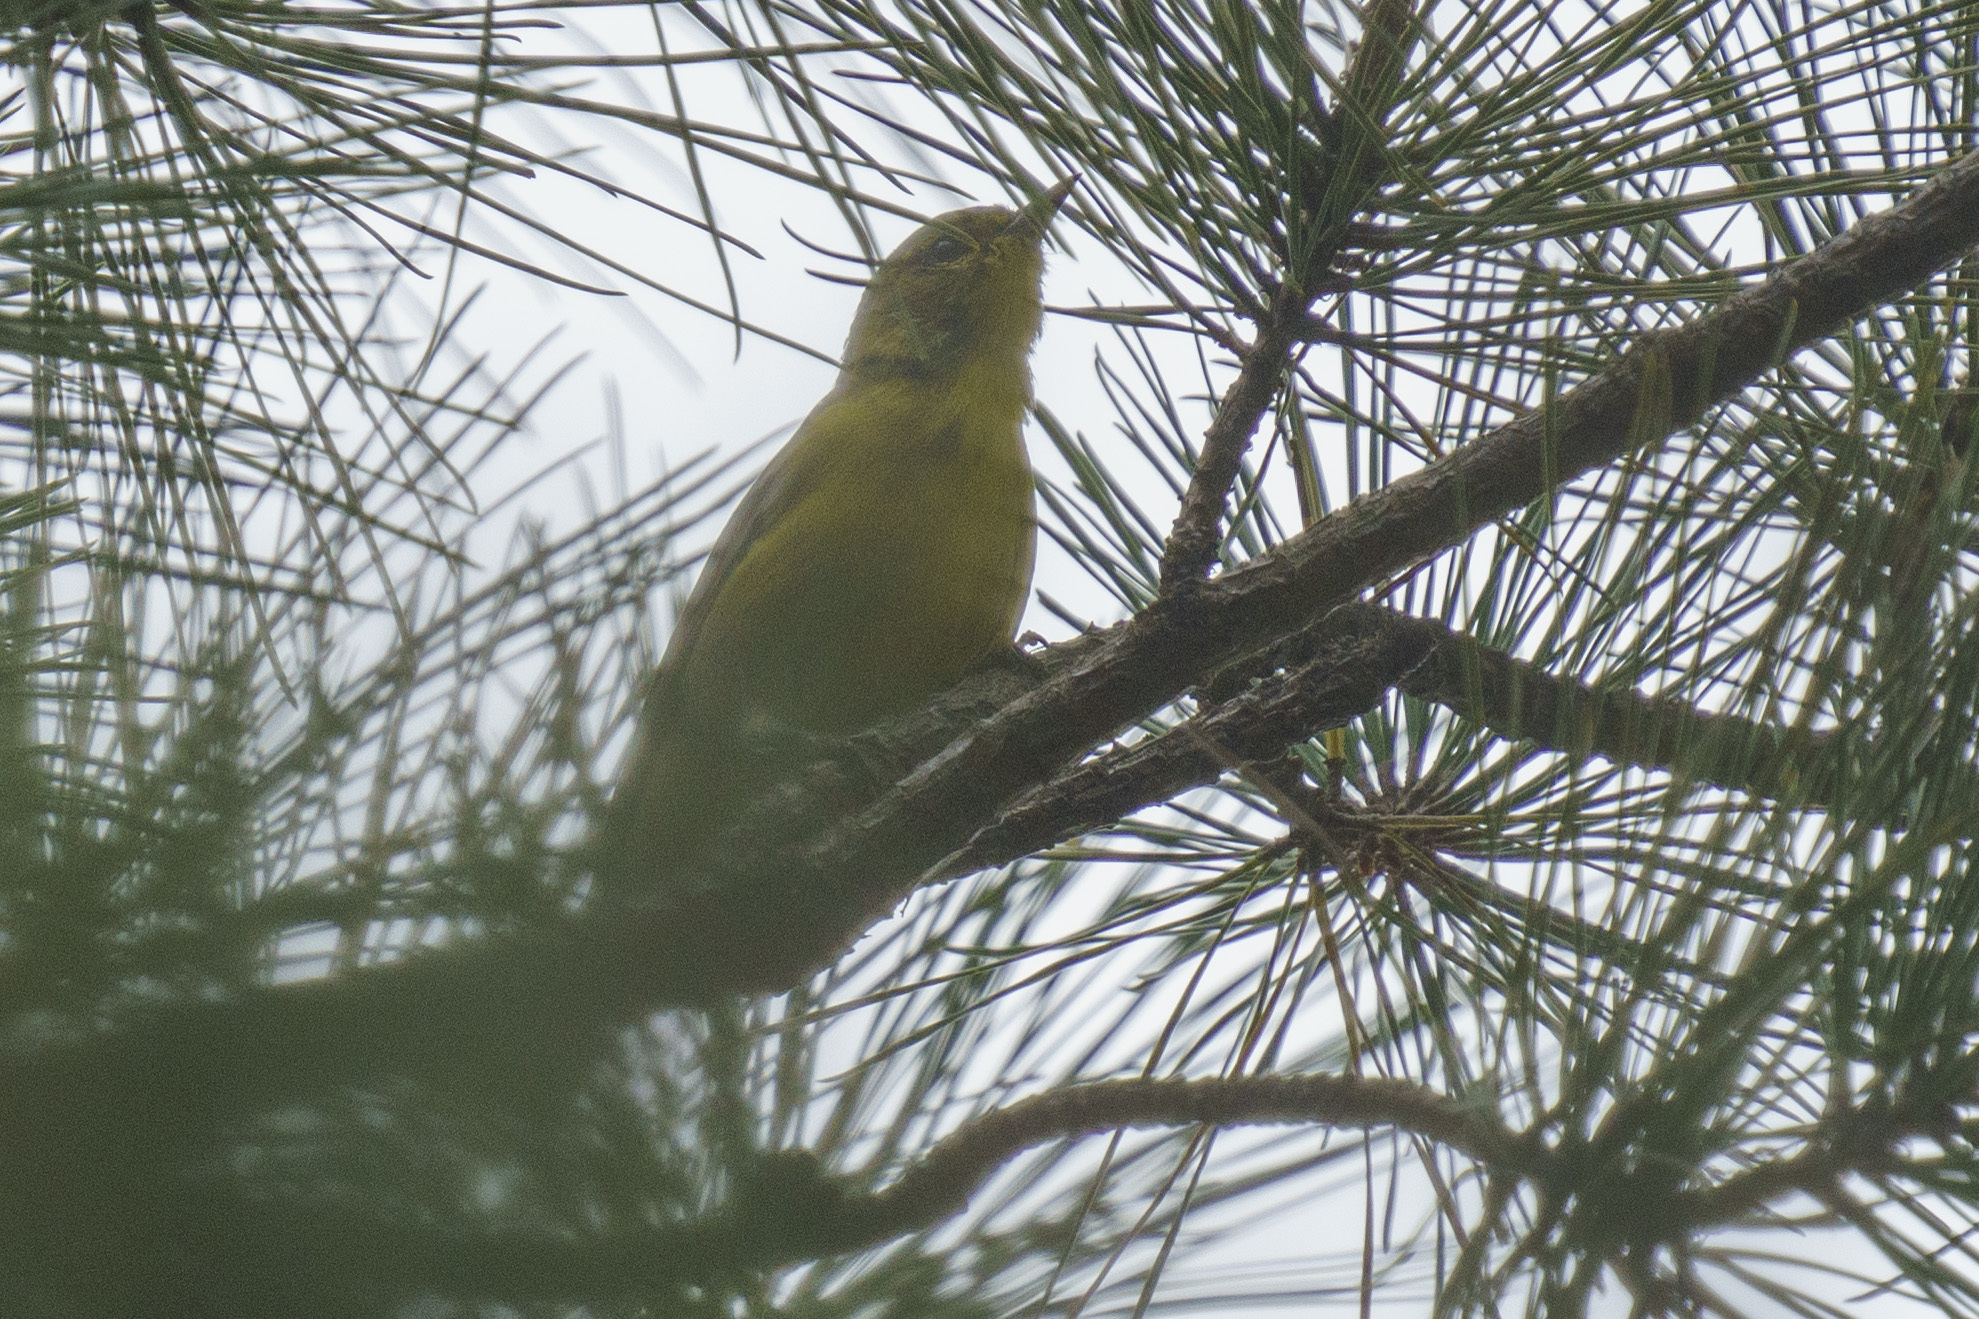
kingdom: Animalia
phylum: Chordata
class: Aves
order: Passeriformes
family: Parulidae
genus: Setophaga
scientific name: Setophaga pinus
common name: Pine warbler
